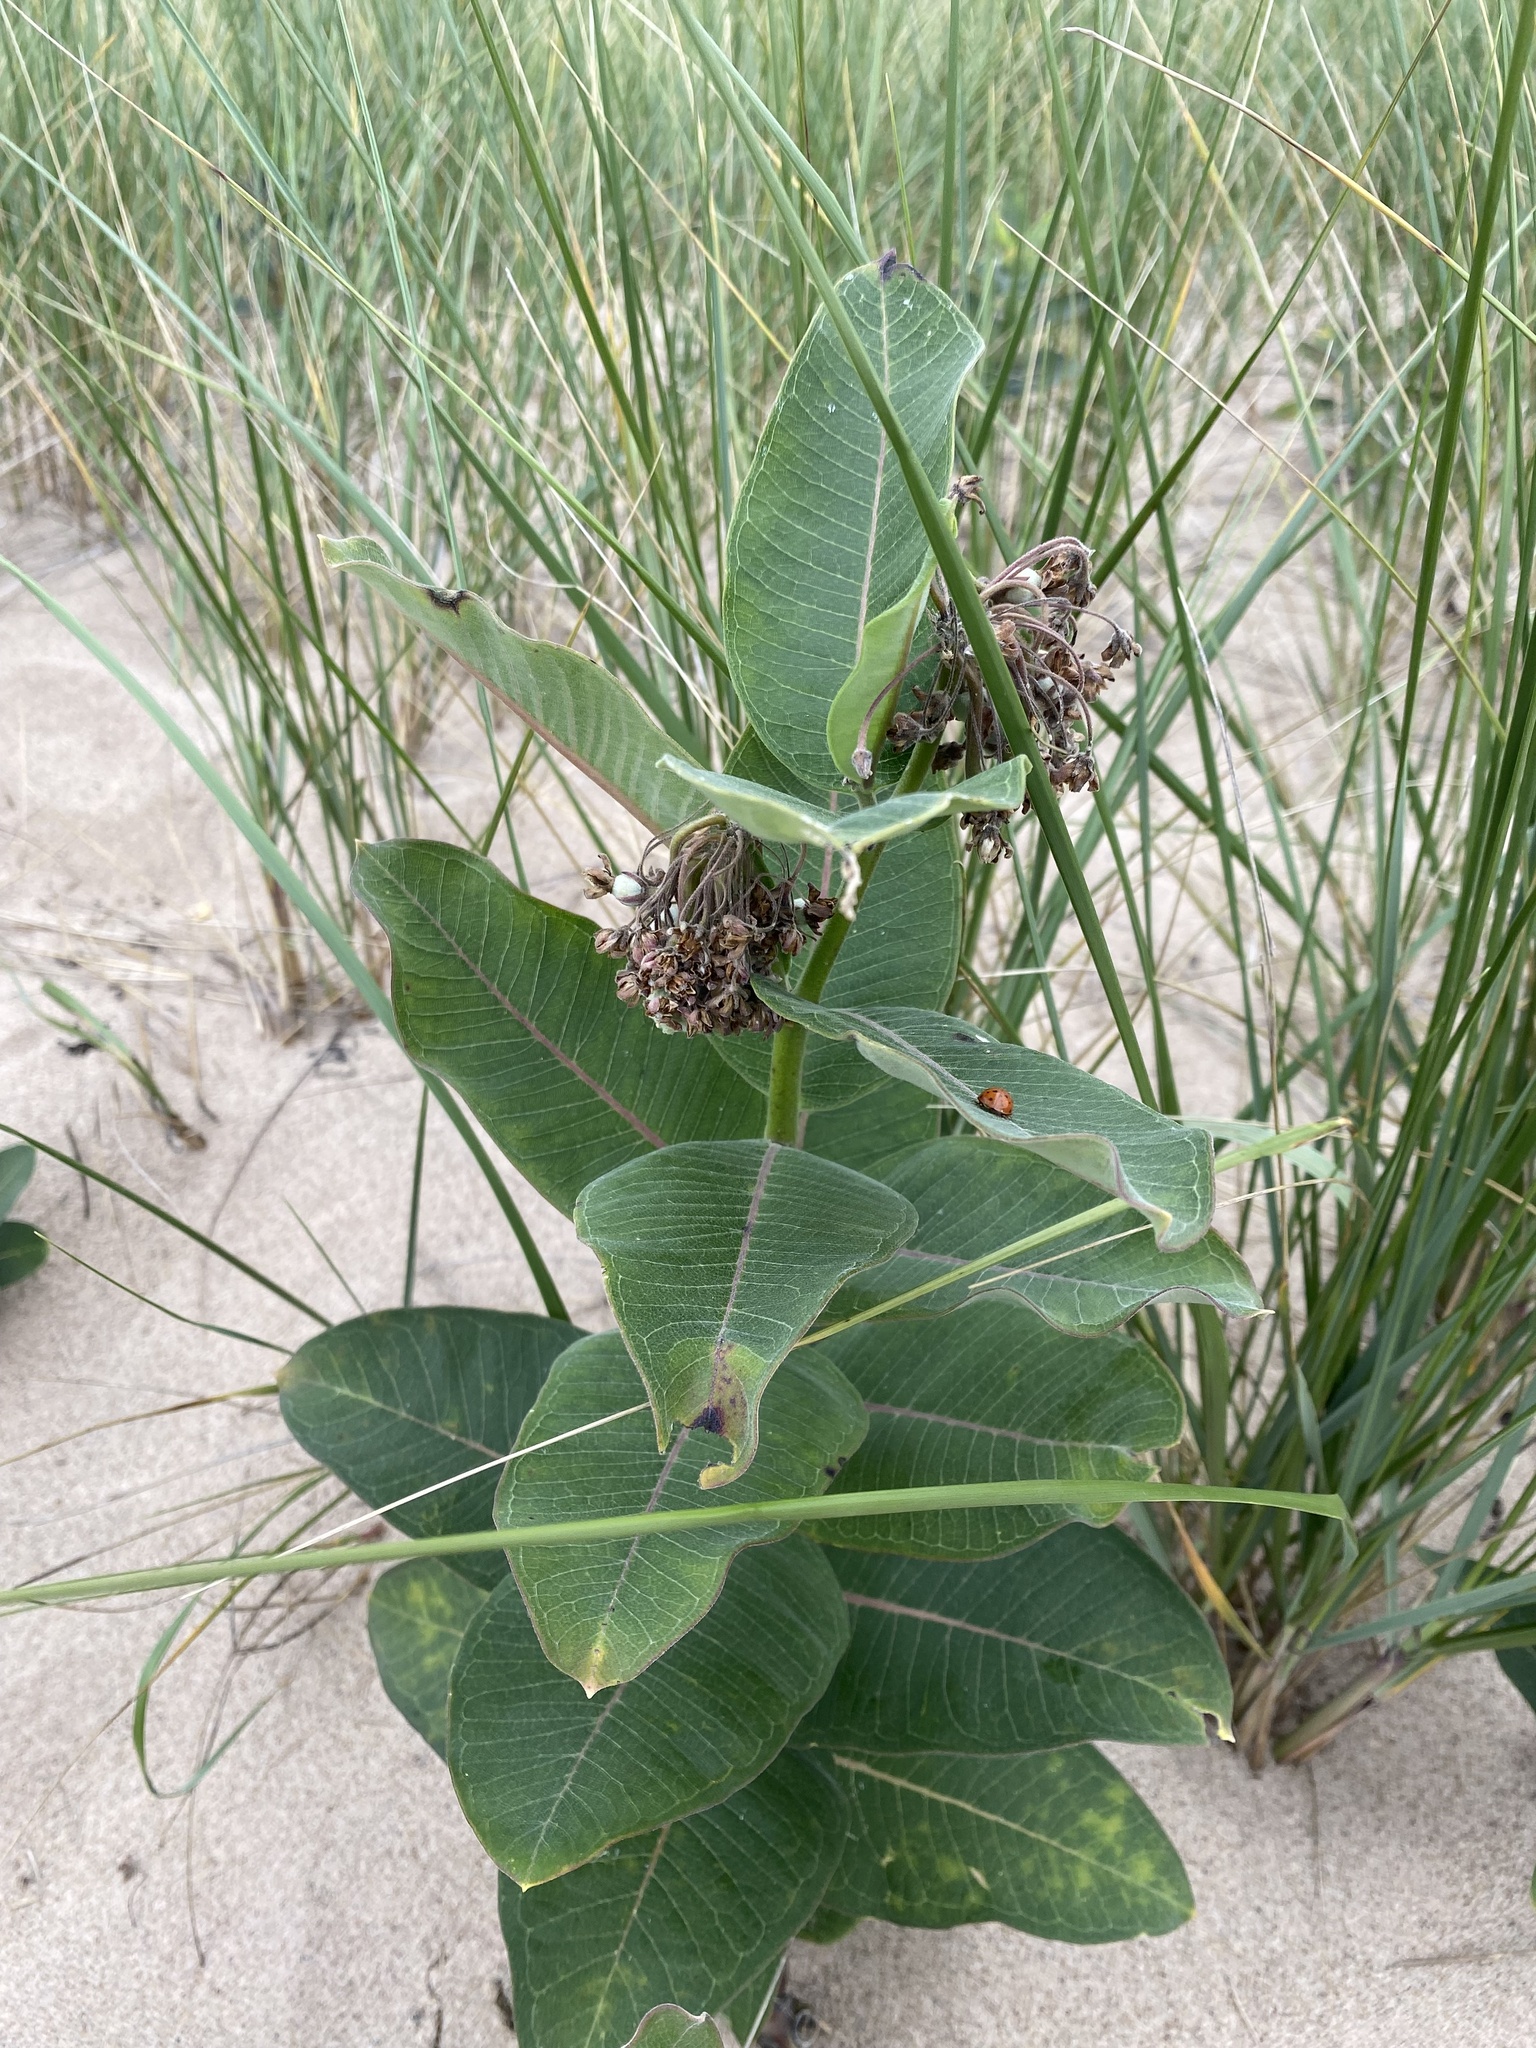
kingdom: Plantae
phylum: Tracheophyta
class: Magnoliopsida
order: Gentianales
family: Apocynaceae
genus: Asclepias
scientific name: Asclepias syriaca
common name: Common milkweed
